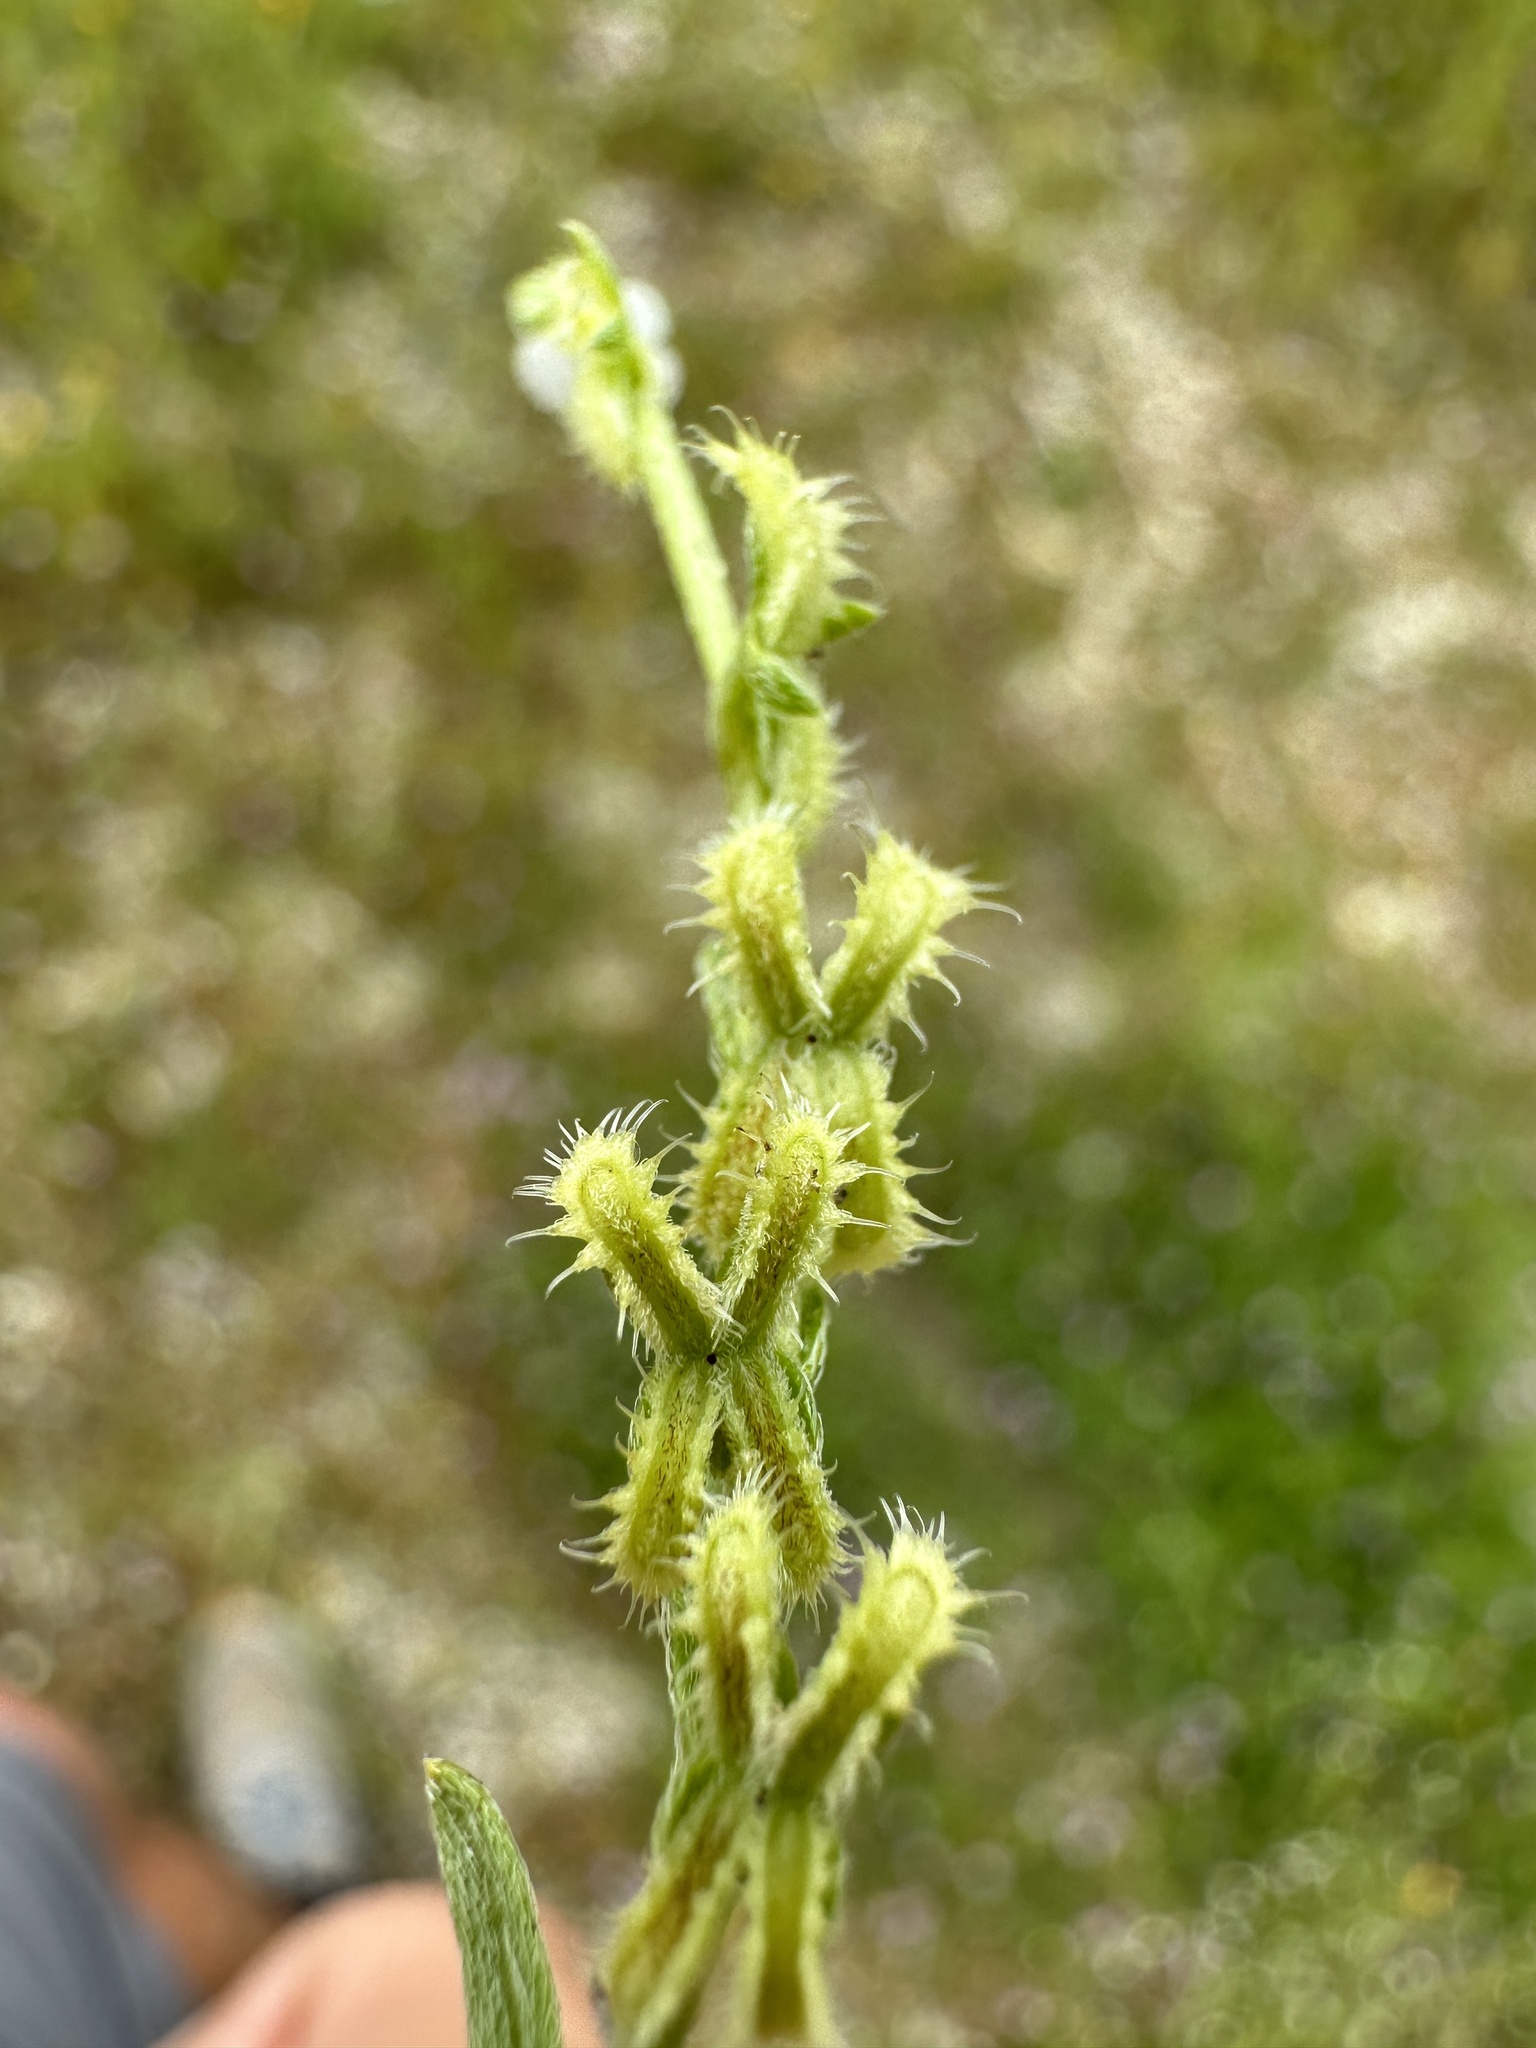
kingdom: Plantae
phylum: Tracheophyta
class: Magnoliopsida
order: Boraginales
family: Boraginaceae
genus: Pectocarya
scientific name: Pectocarya linearis
